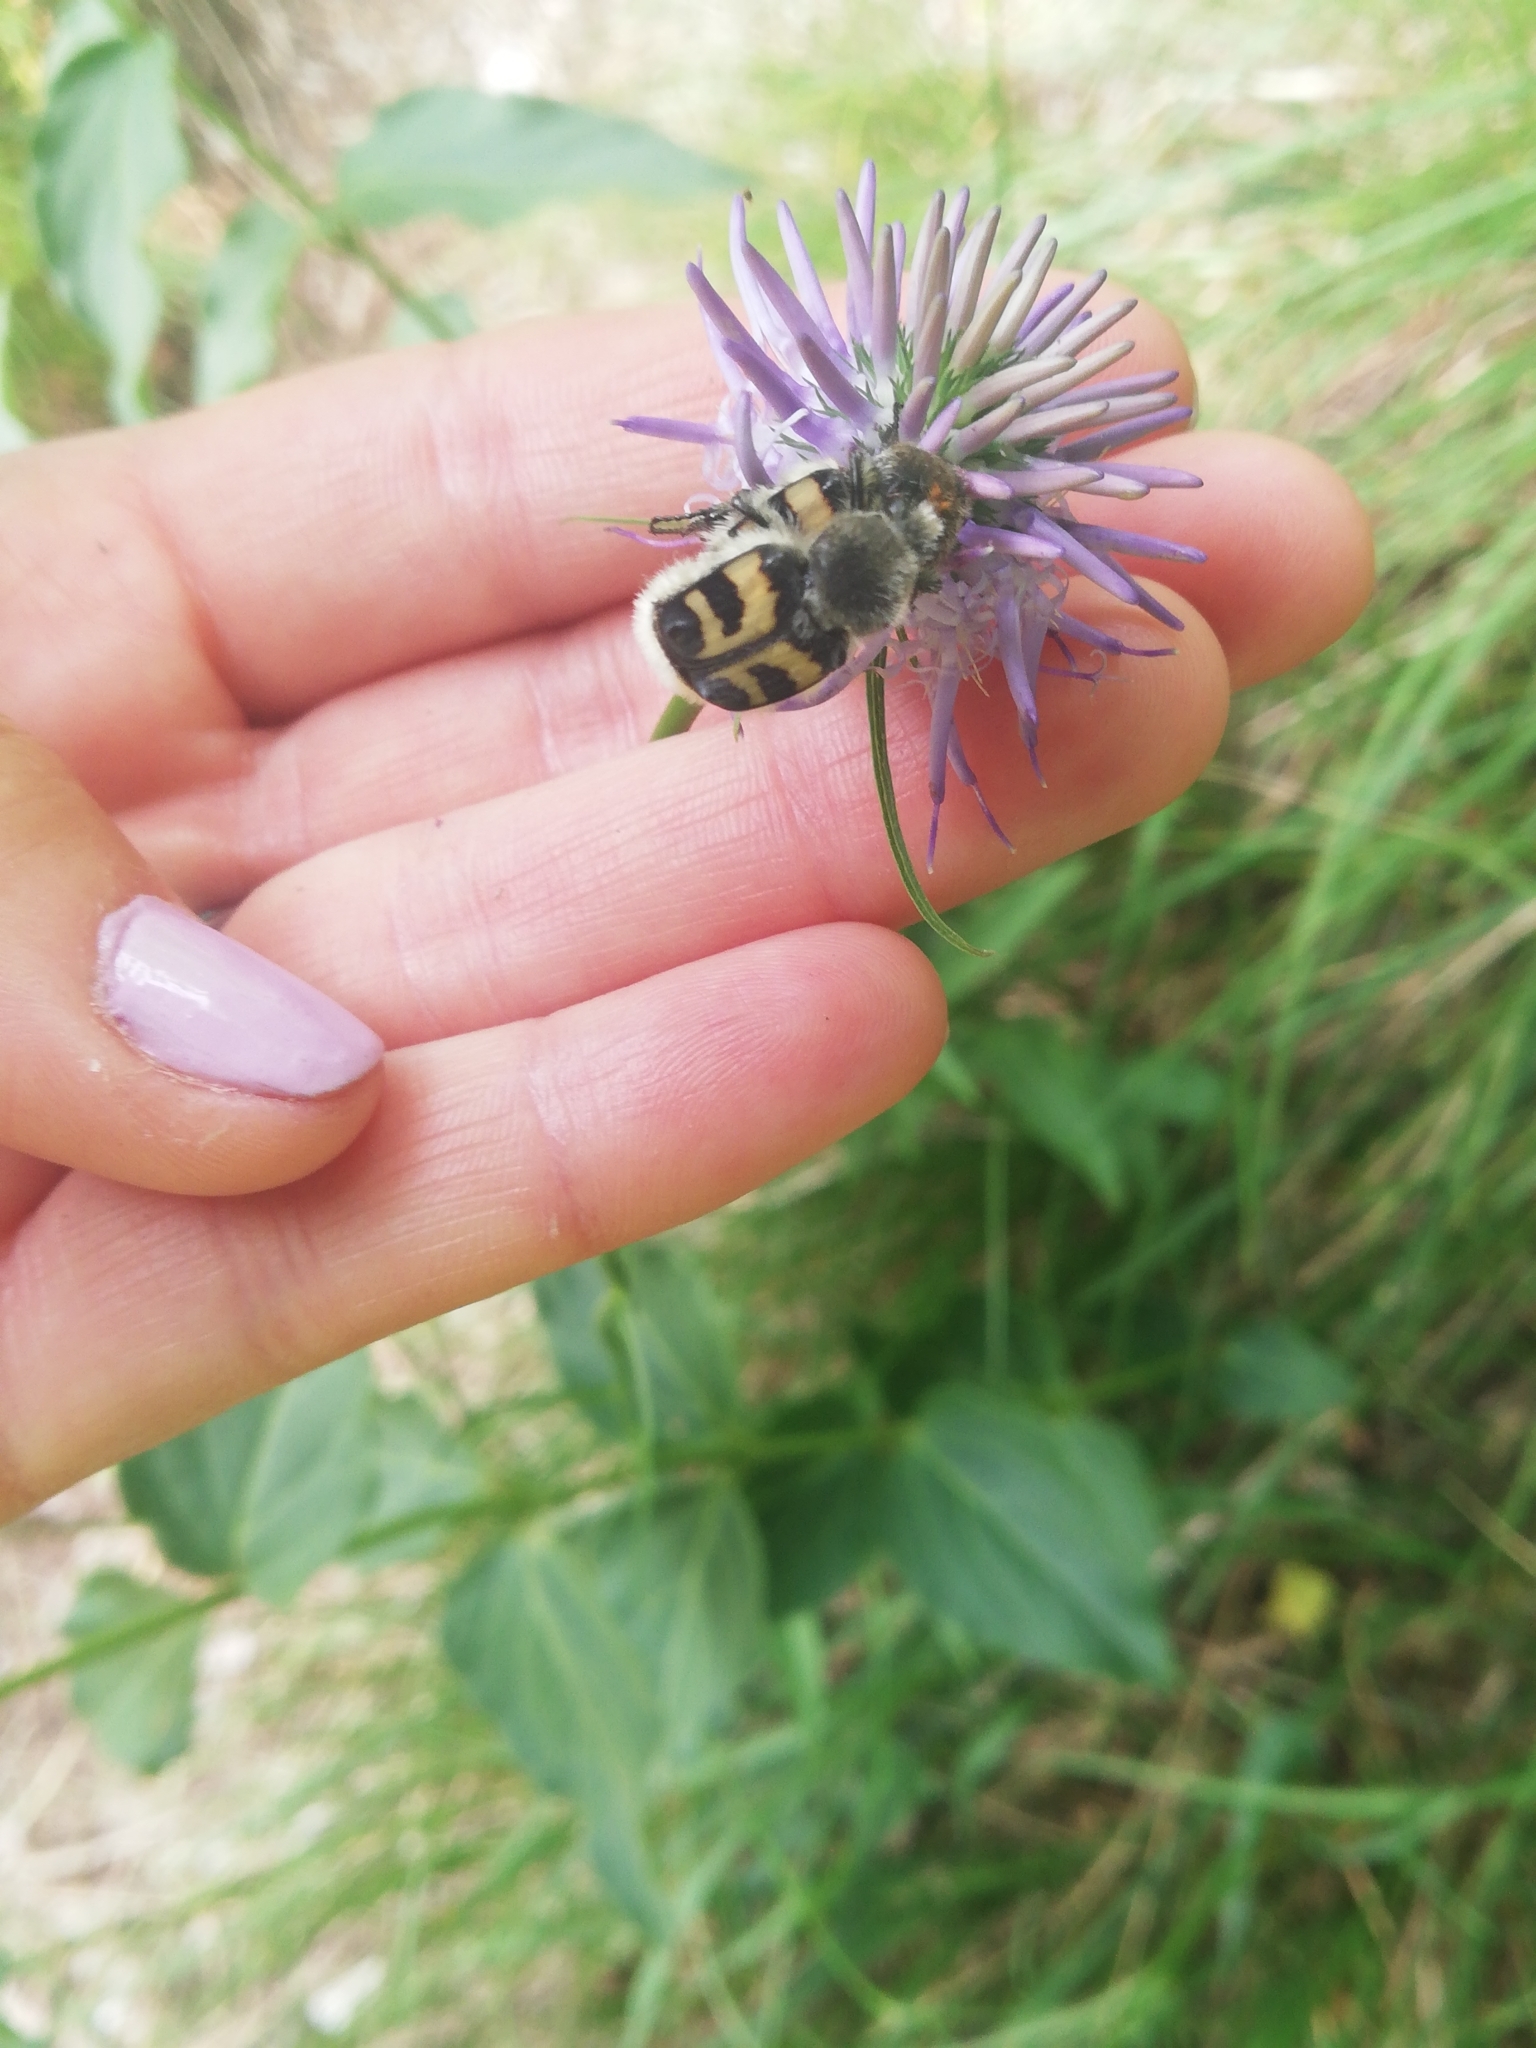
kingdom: Animalia
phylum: Arthropoda
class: Insecta
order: Coleoptera
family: Scarabaeidae
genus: Trichius
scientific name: Trichius fasciatus
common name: Bee beetle
